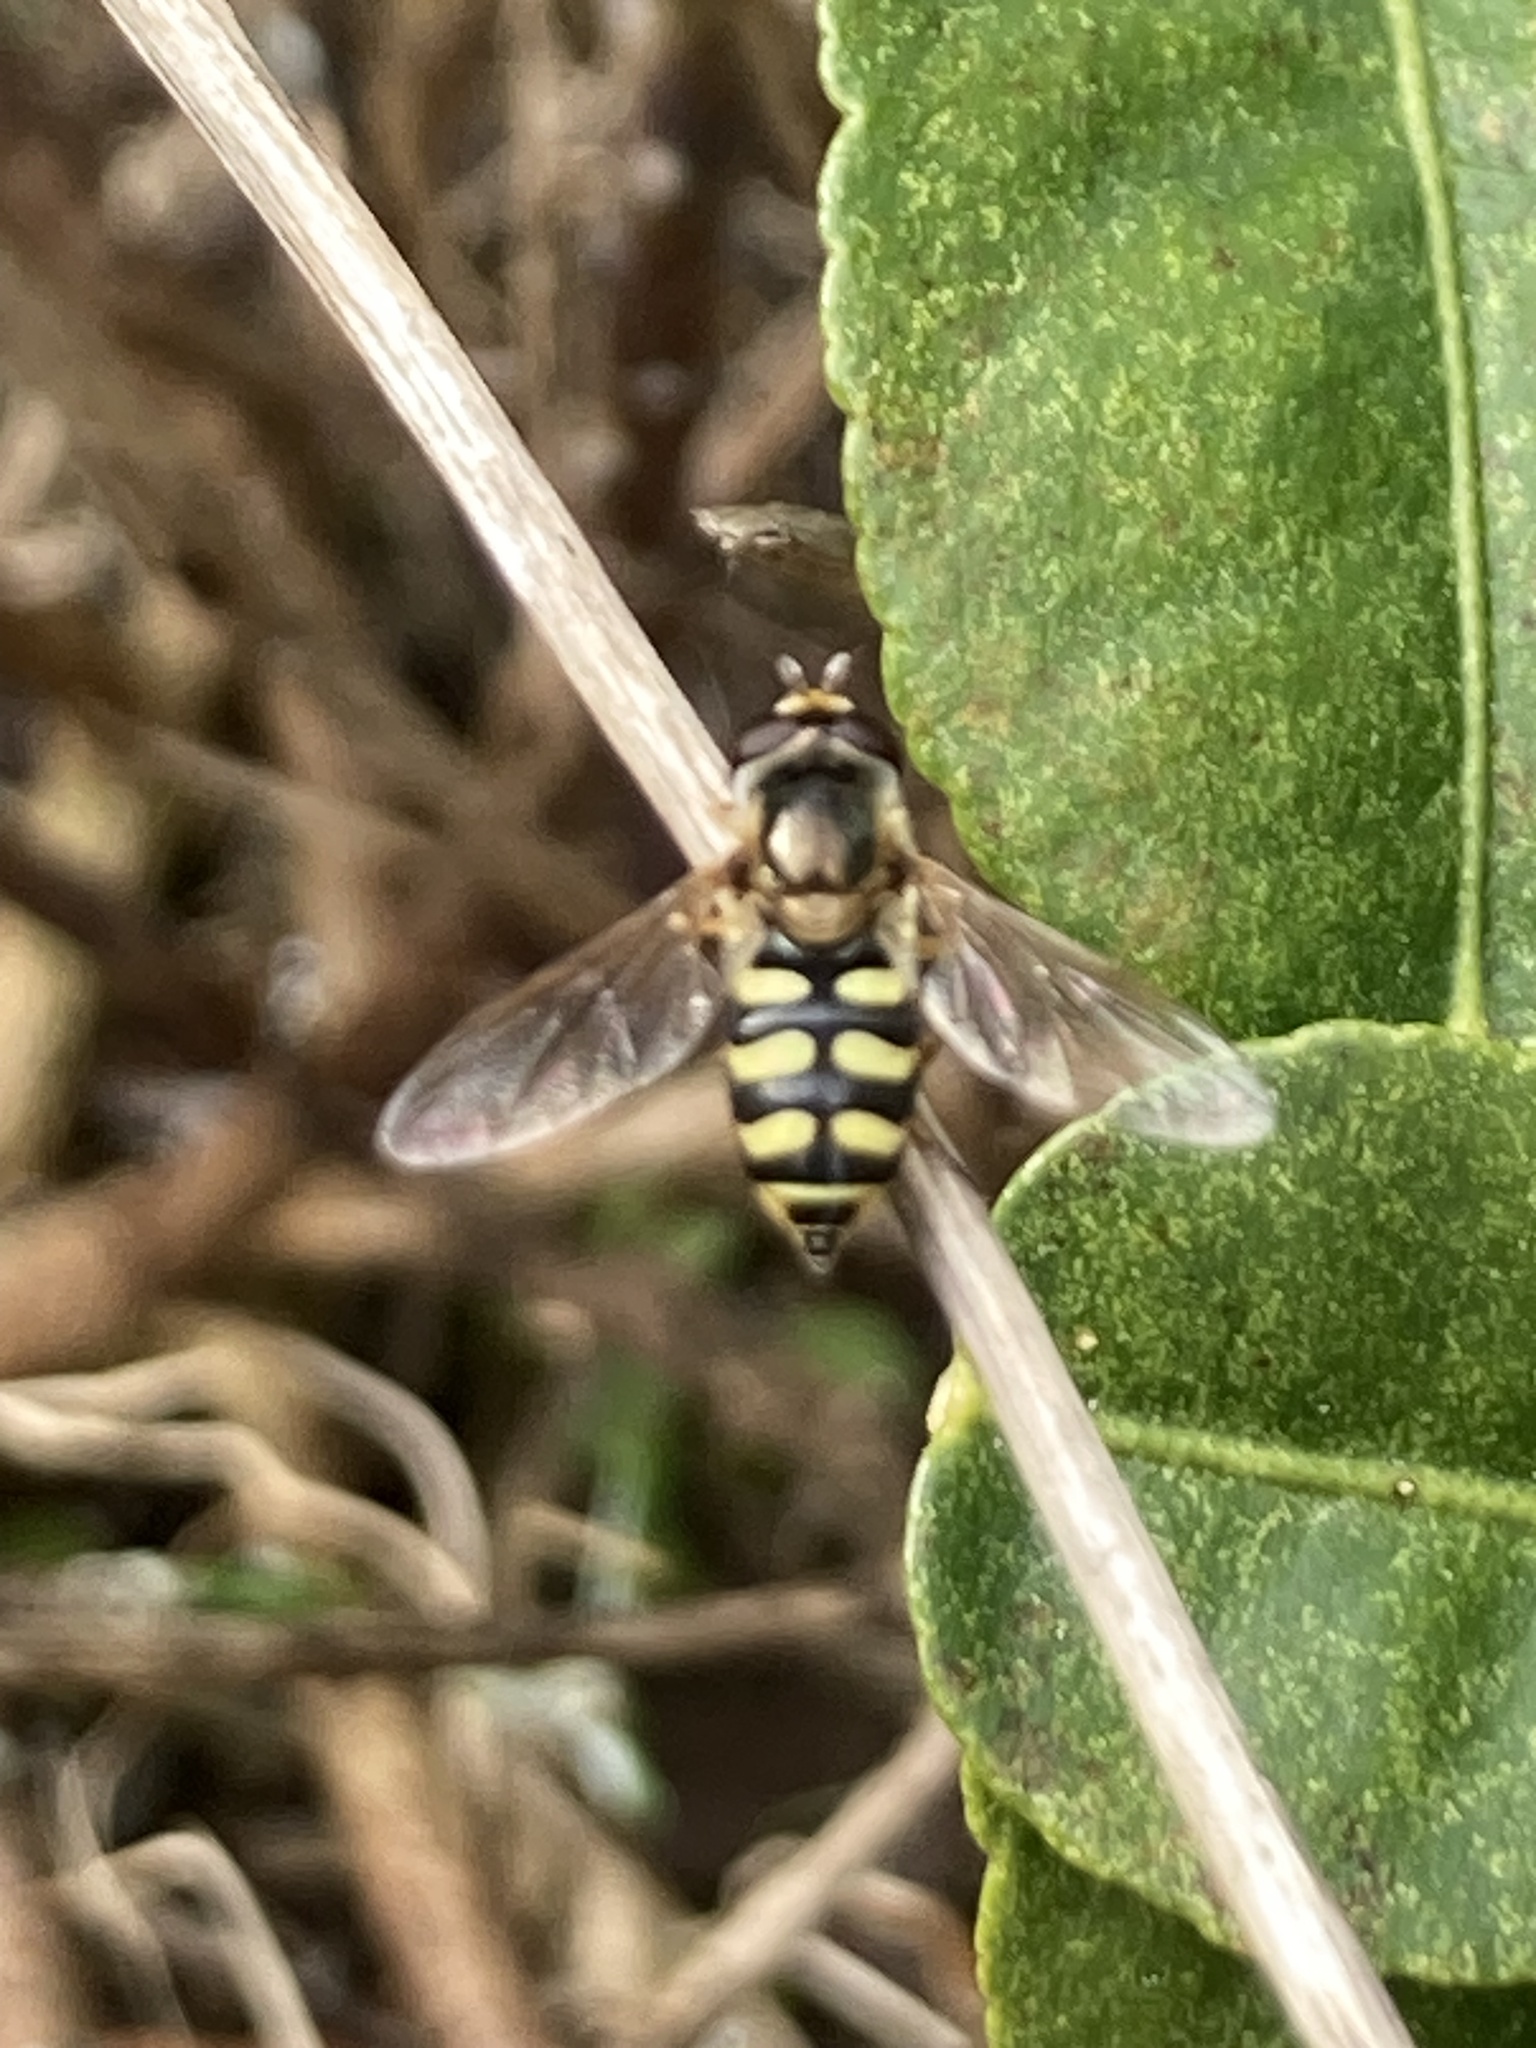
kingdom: Animalia
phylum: Arthropoda
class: Insecta
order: Diptera
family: Syrphidae
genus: Eupeodes
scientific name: Eupeodes corollae
